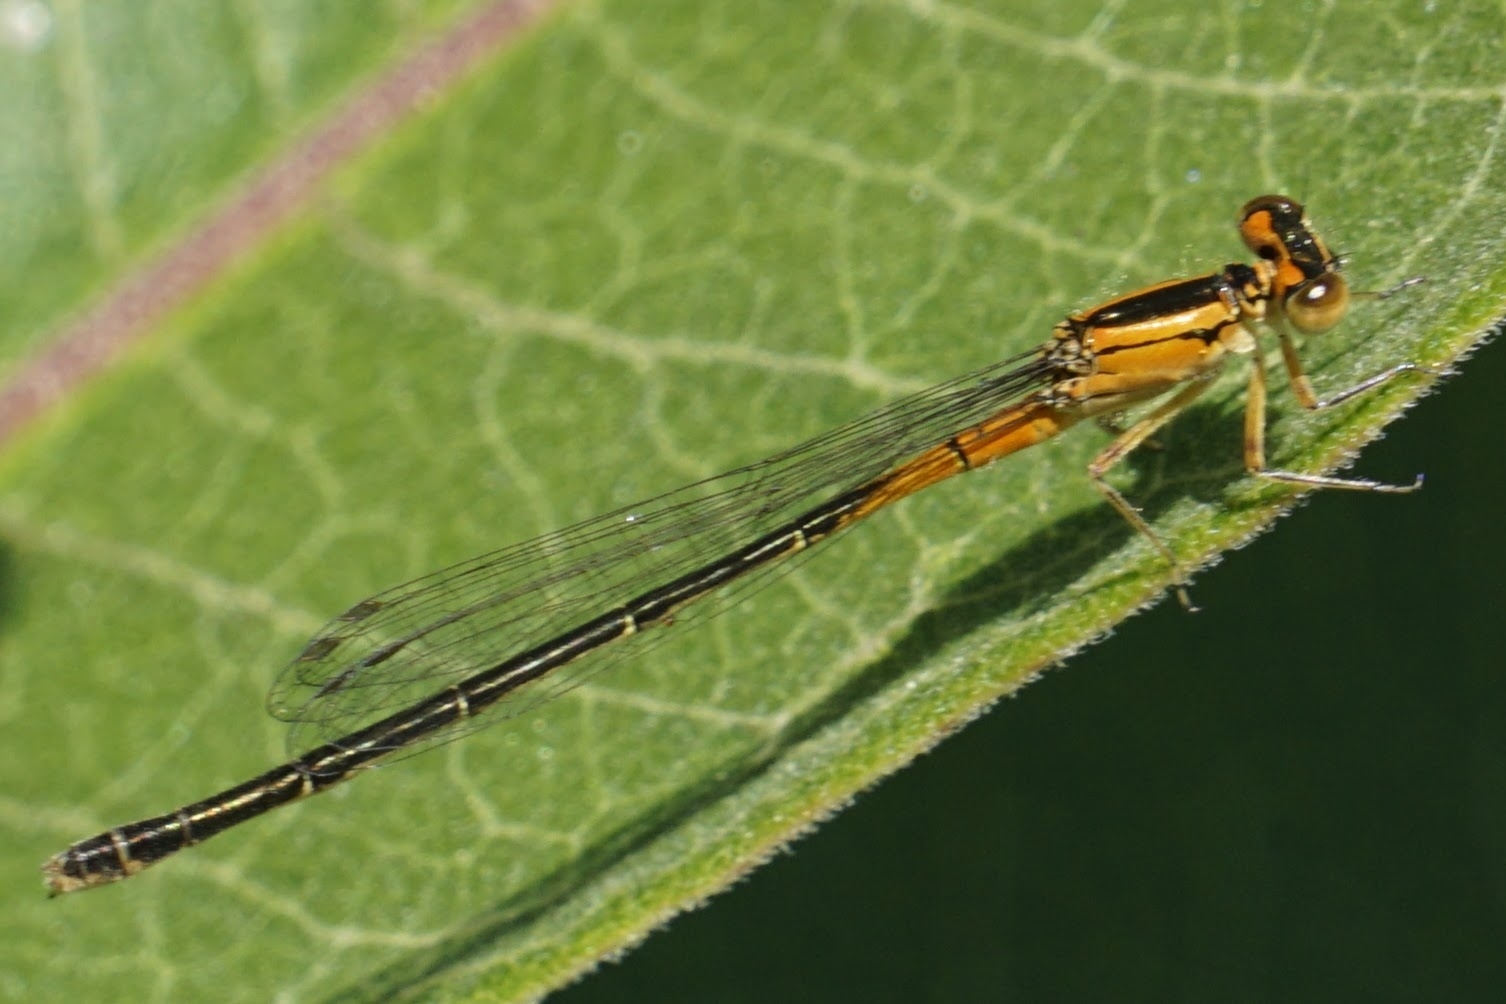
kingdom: Animalia
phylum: Arthropoda
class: Insecta
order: Odonata
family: Coenagrionidae
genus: Ischnura
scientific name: Ischnura verticalis
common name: Eastern forktail
